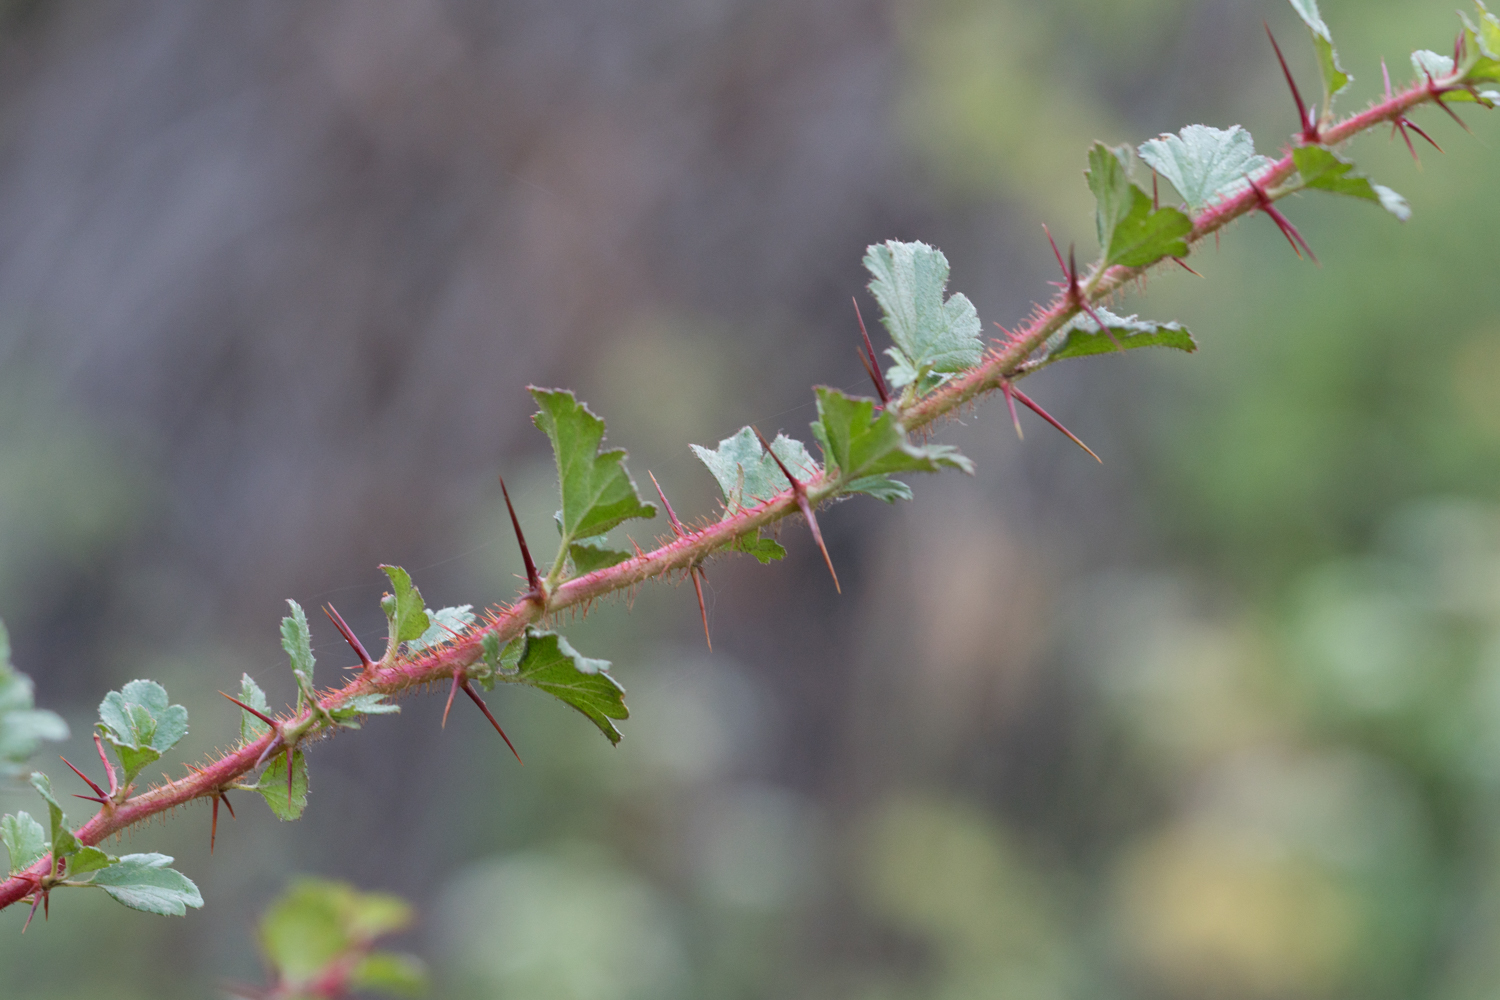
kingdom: Plantae
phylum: Tracheophyta
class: Magnoliopsida
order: Saxifragales
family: Grossulariaceae
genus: Ribes
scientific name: Ribes speciosum
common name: Fuchsia-flower gooseberry
